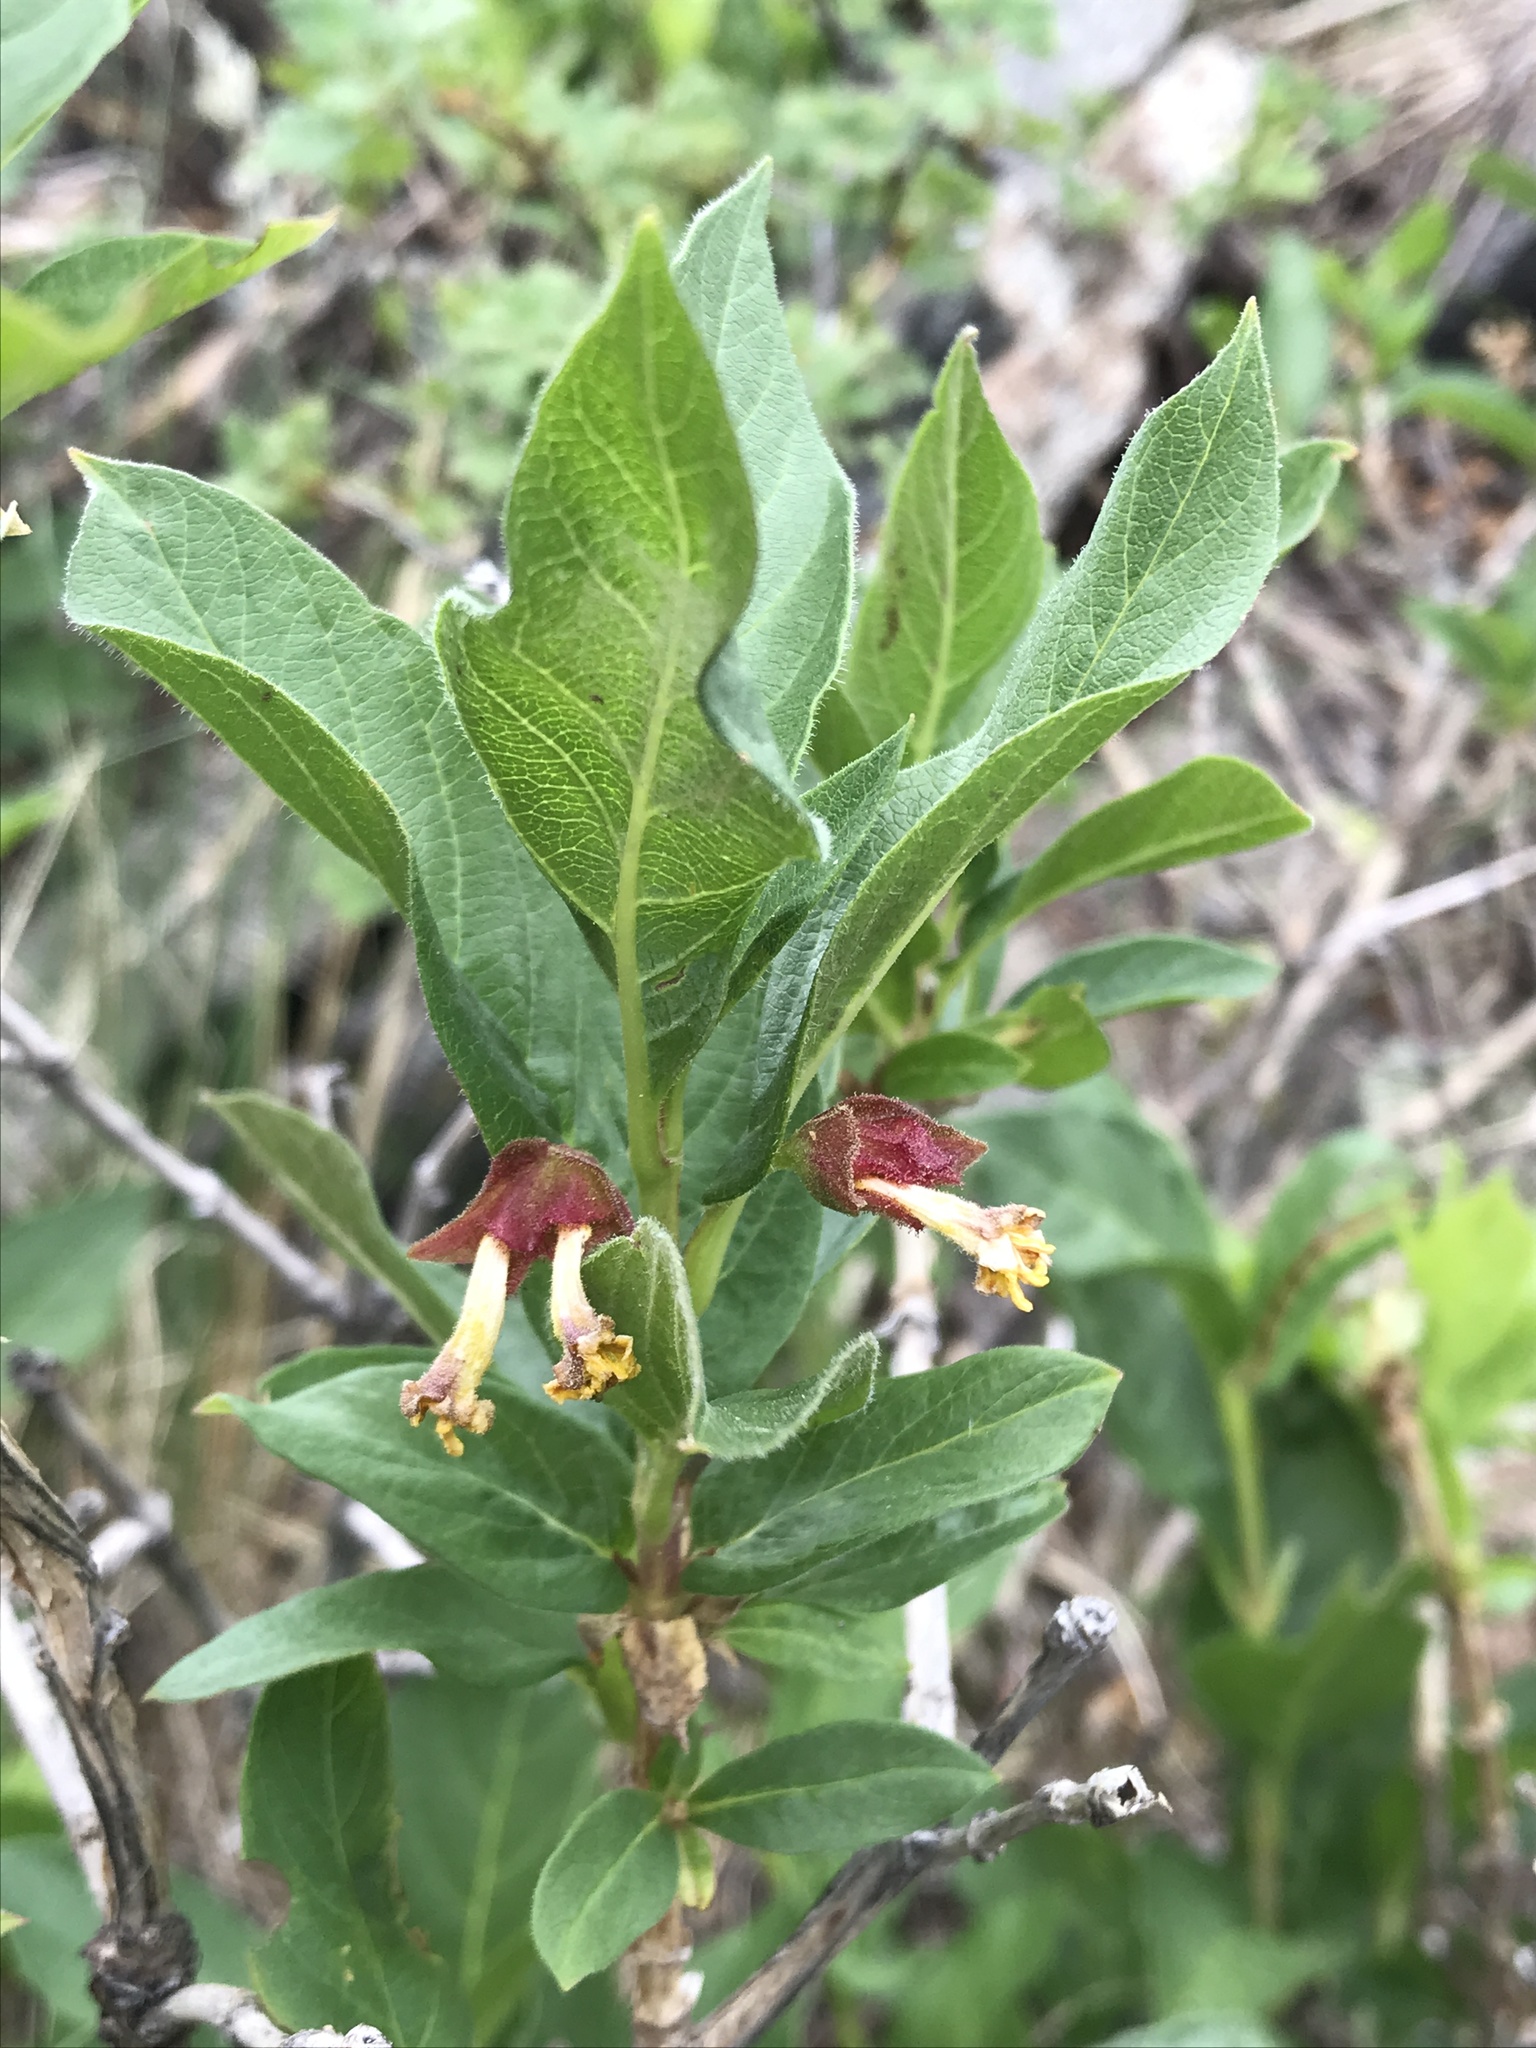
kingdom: Plantae
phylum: Tracheophyta
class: Magnoliopsida
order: Dipsacales
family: Caprifoliaceae
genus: Lonicera
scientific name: Lonicera involucrata
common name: Californian honeysuckle
